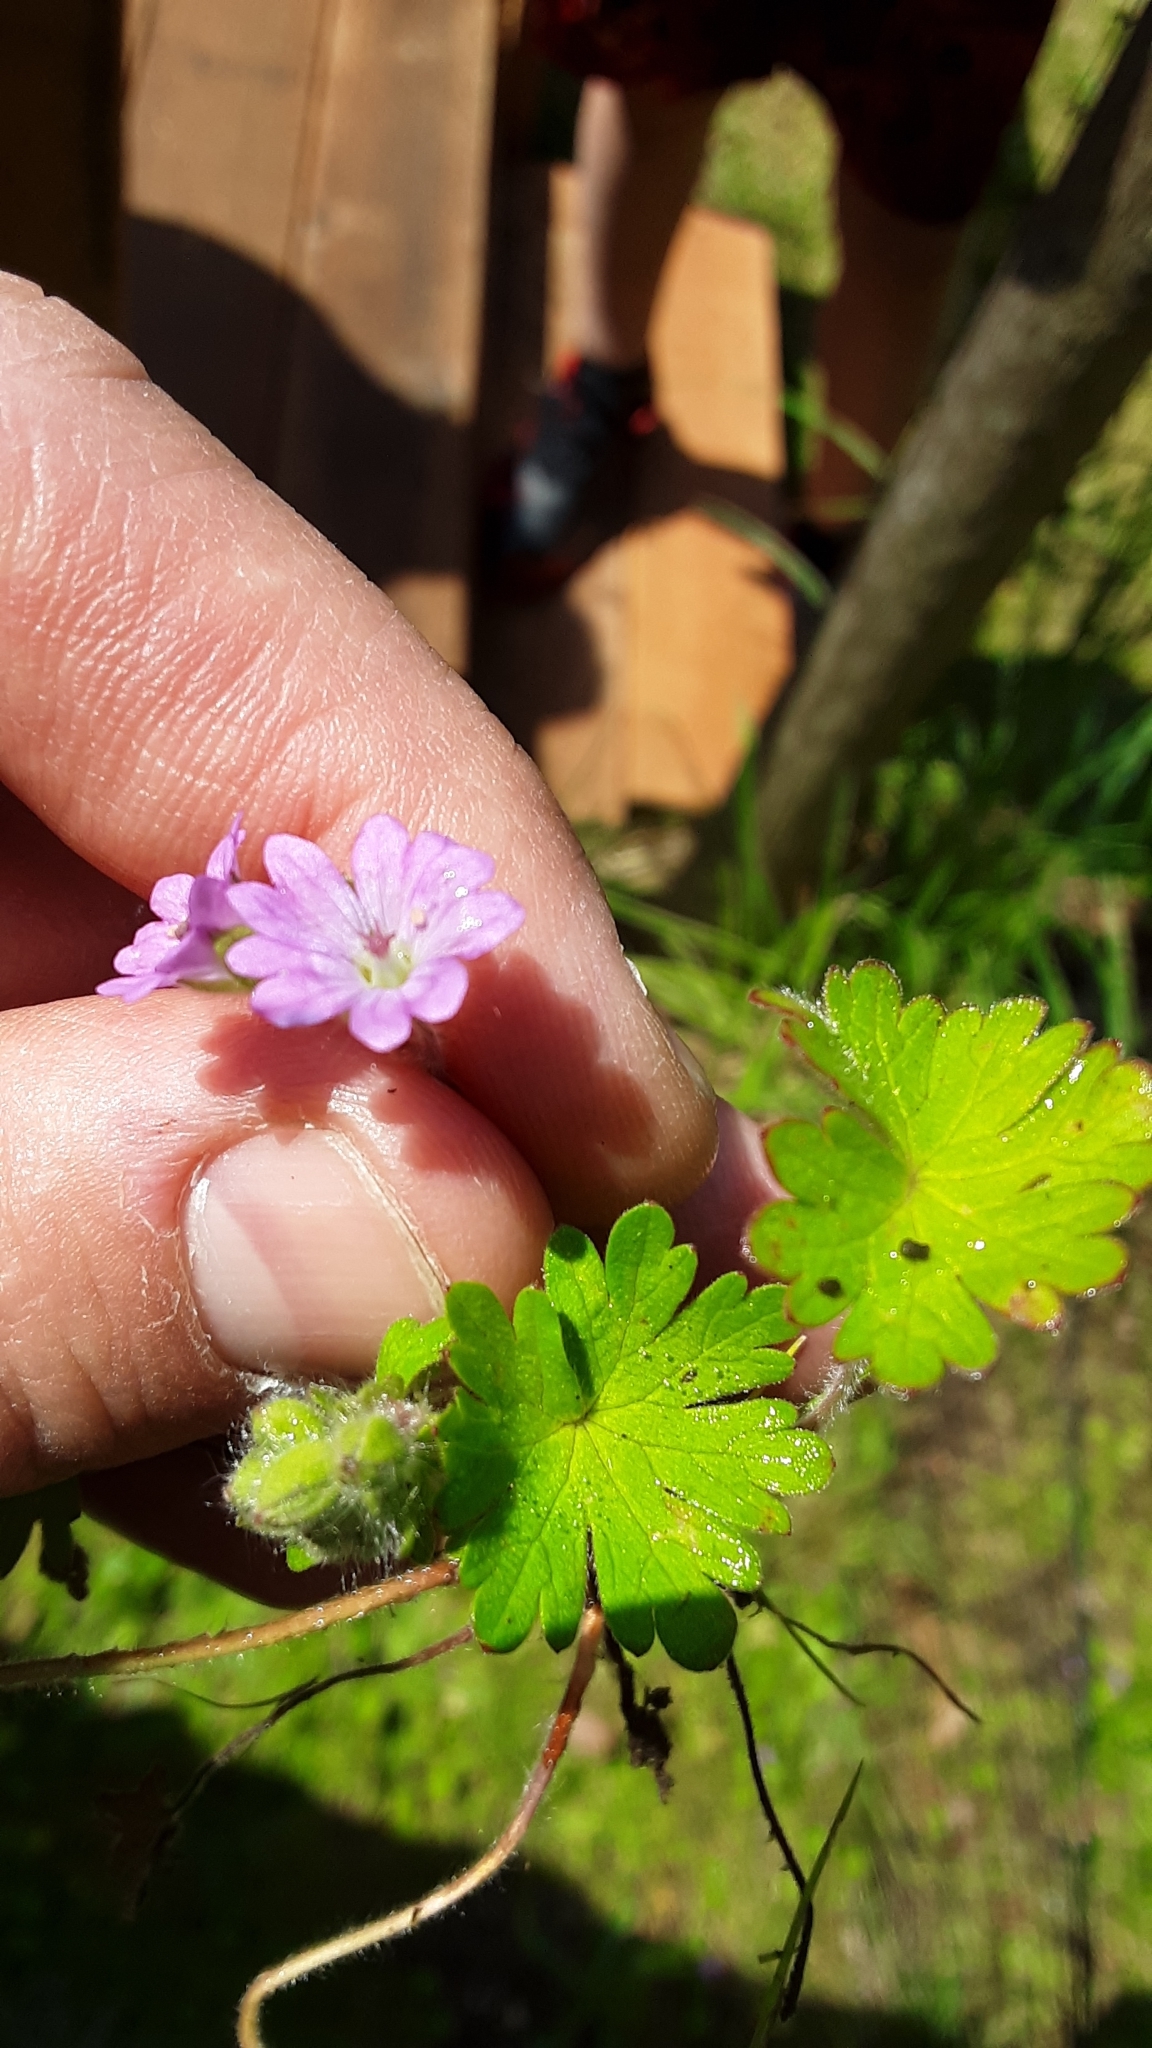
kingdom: Plantae
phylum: Tracheophyta
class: Magnoliopsida
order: Geraniales
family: Geraniaceae
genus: Geranium
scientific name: Geranium molle
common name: Dove's-foot crane's-bill
